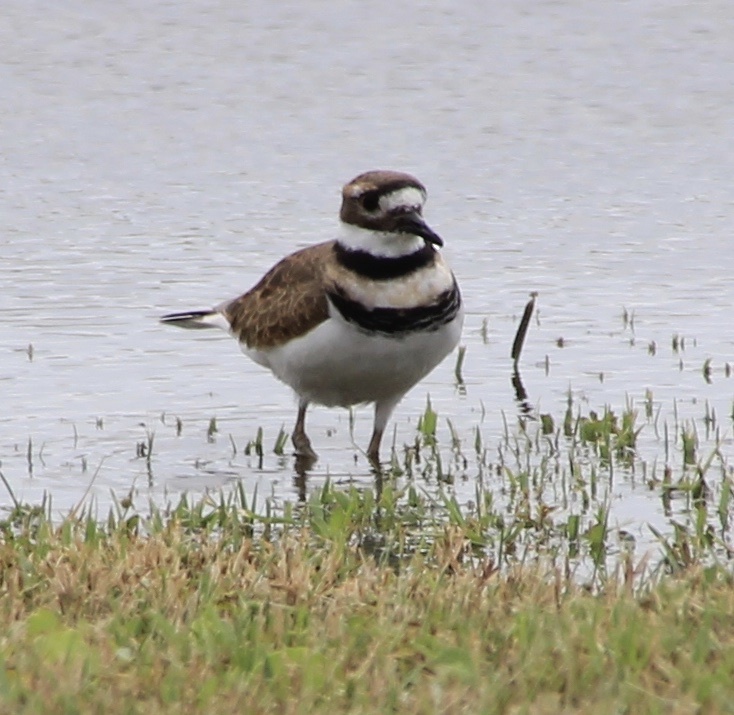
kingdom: Animalia
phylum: Chordata
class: Aves
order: Charadriiformes
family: Charadriidae
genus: Charadrius
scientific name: Charadrius vociferus
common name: Killdeer
